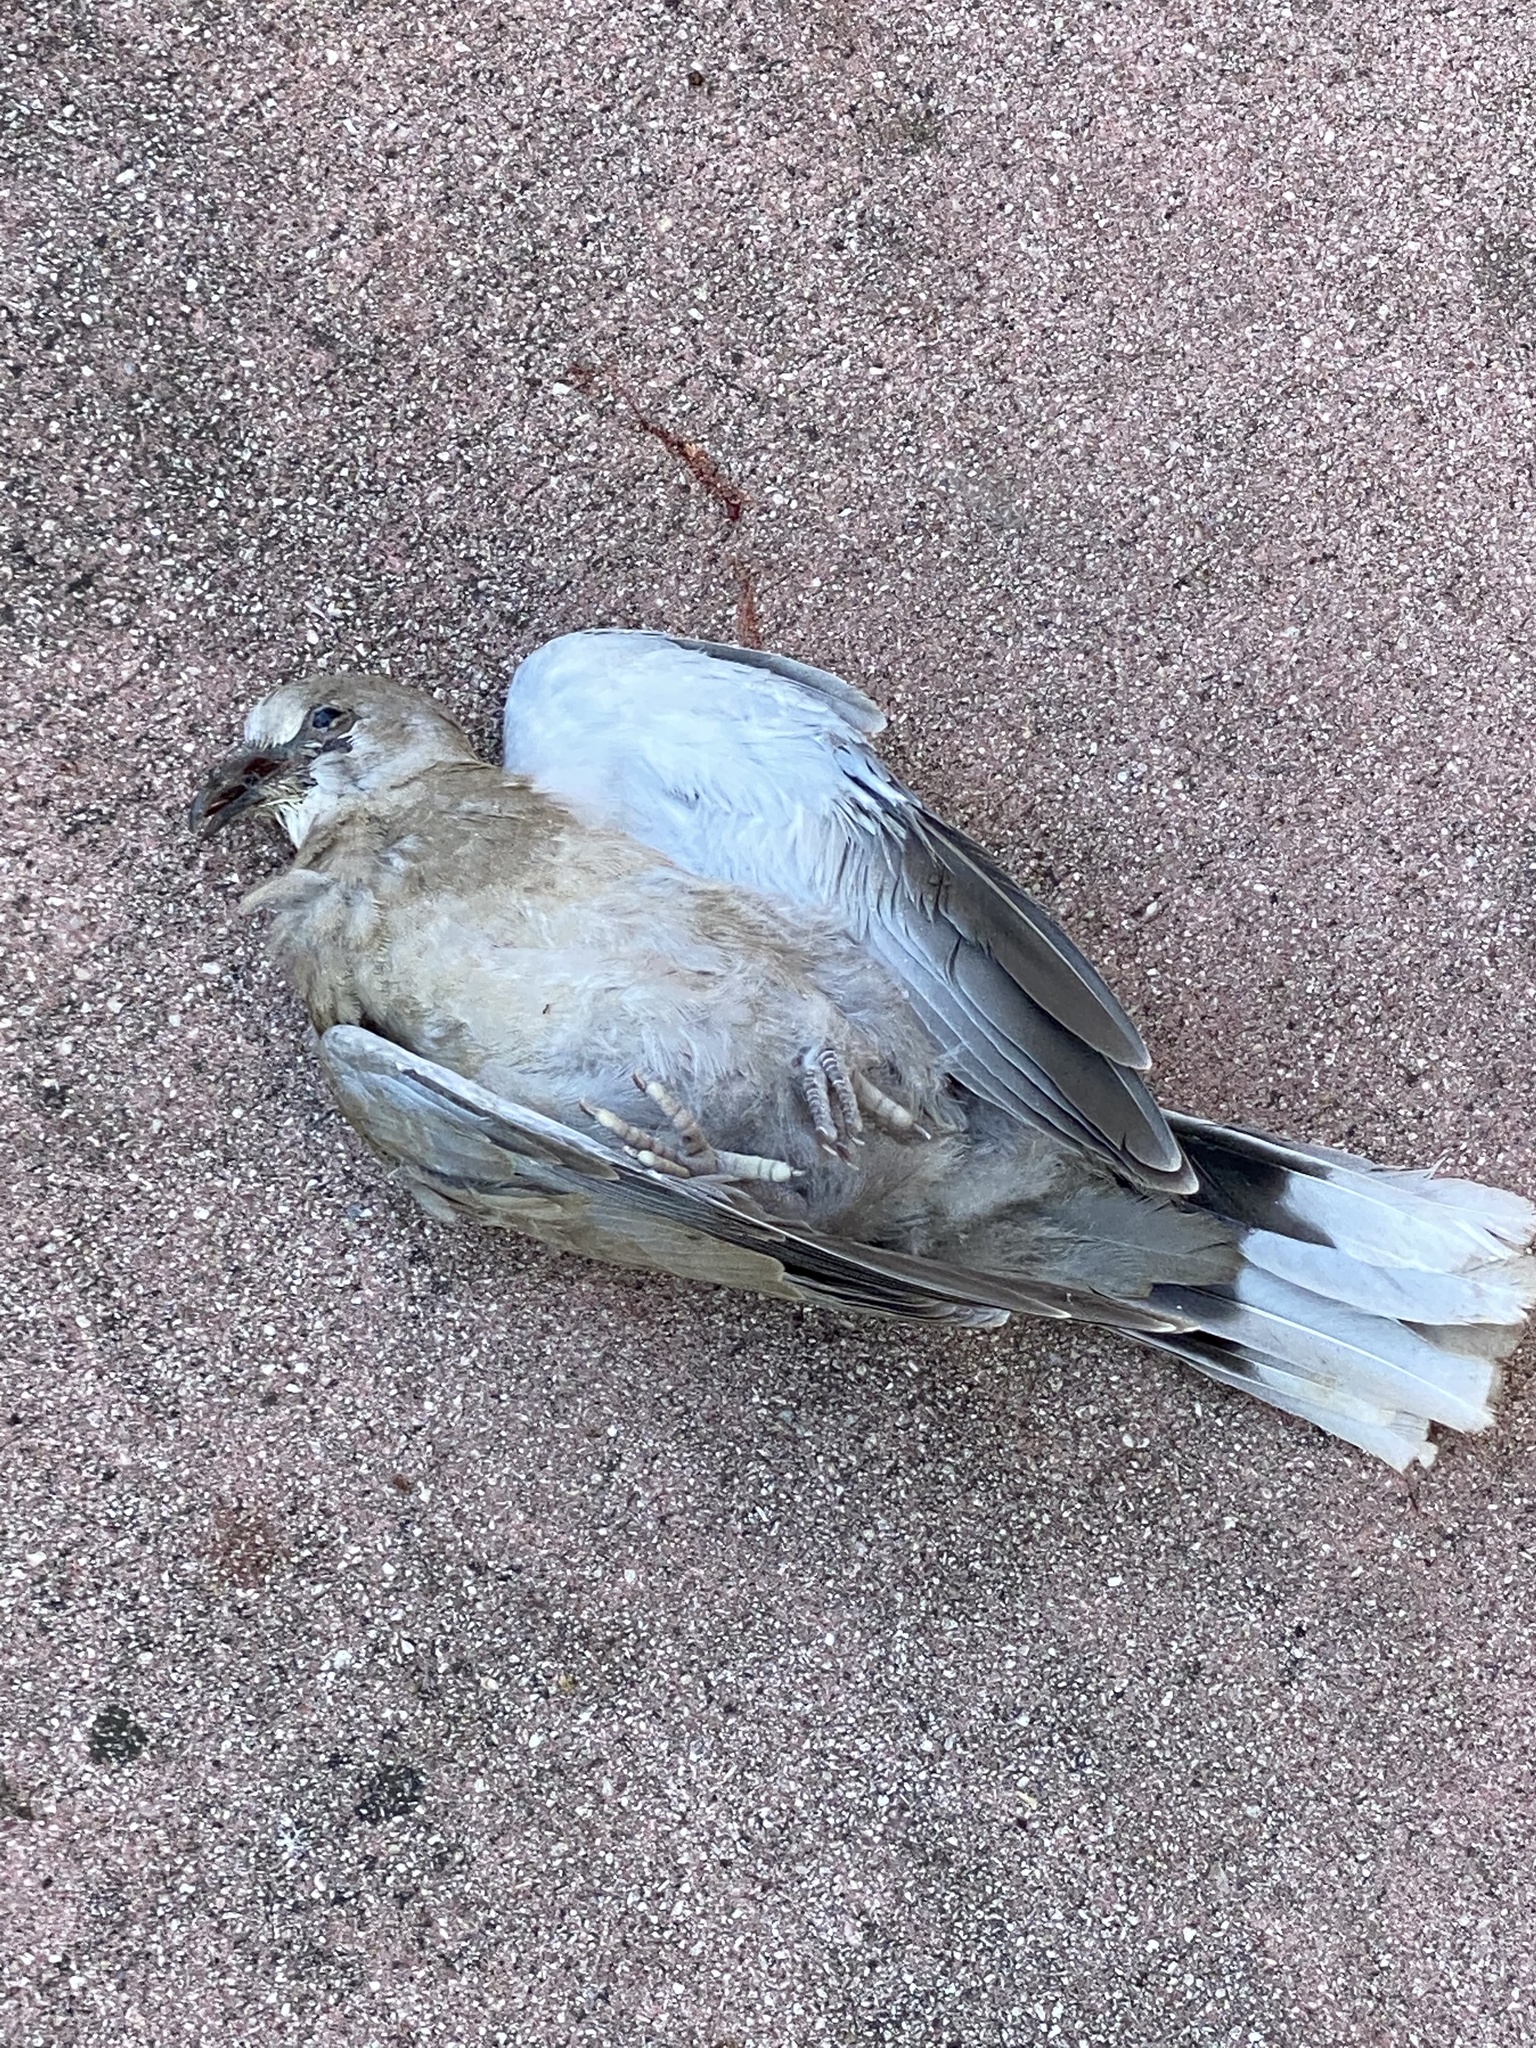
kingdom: Animalia
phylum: Chordata
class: Aves
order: Columbiformes
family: Columbidae
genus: Streptopelia
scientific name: Streptopelia decaocto
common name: Eurasian collared dove
